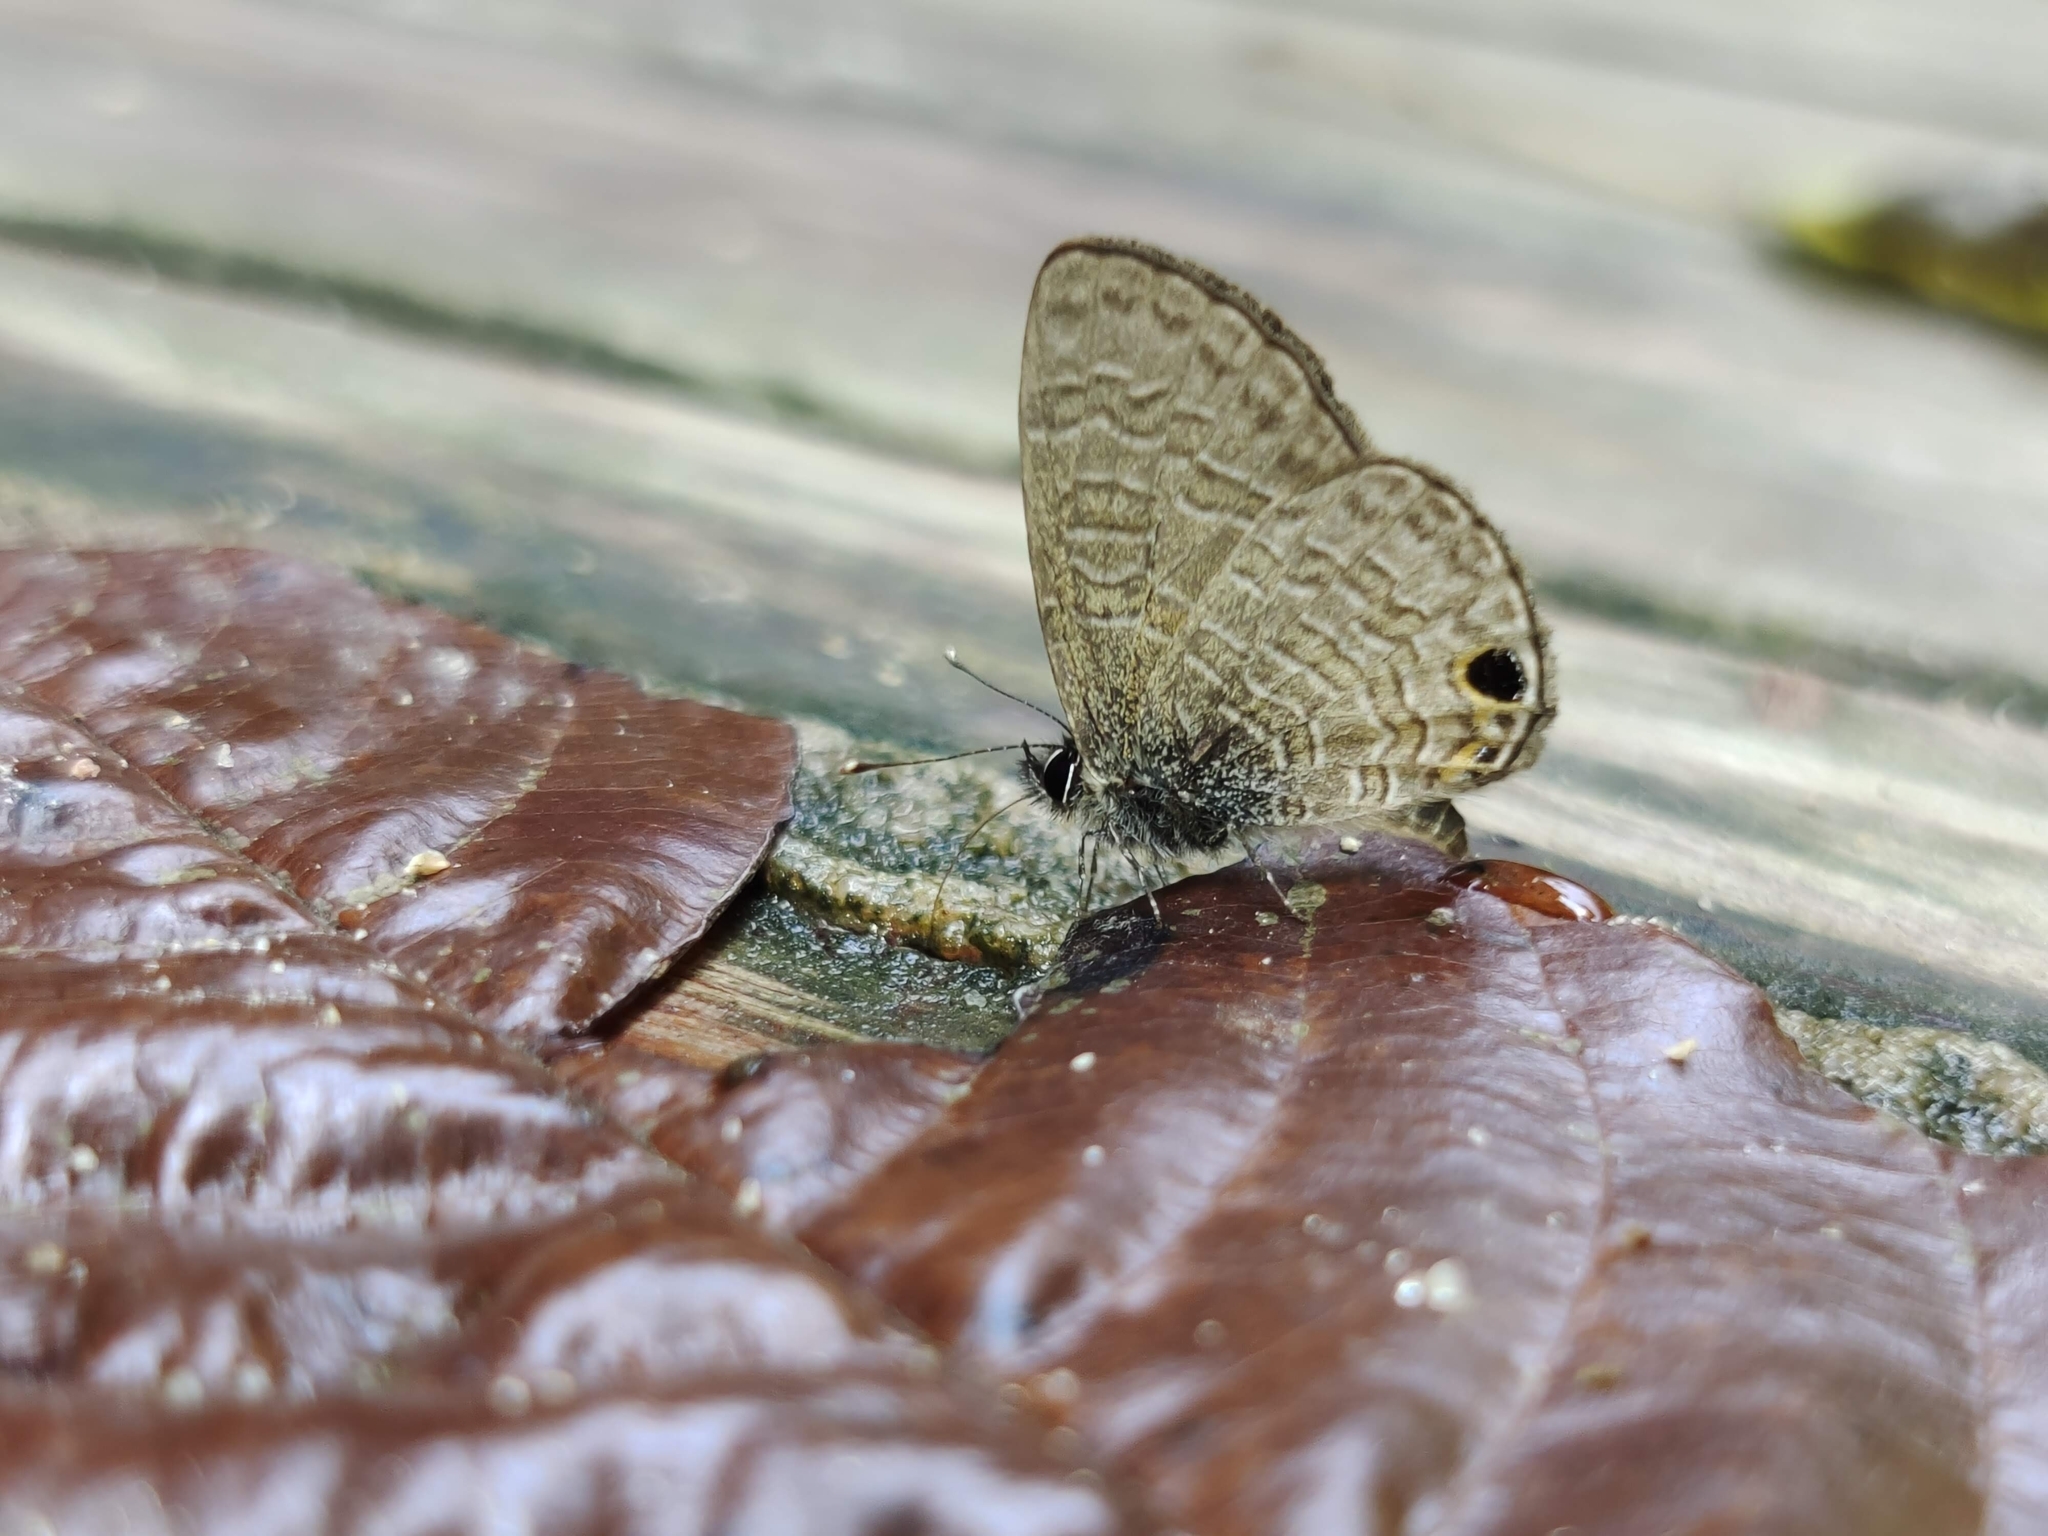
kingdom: Animalia
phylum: Arthropoda
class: Insecta
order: Lepidoptera
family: Lycaenidae
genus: Prosotas
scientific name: Prosotas dubiosa
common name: Tailless lineblue
